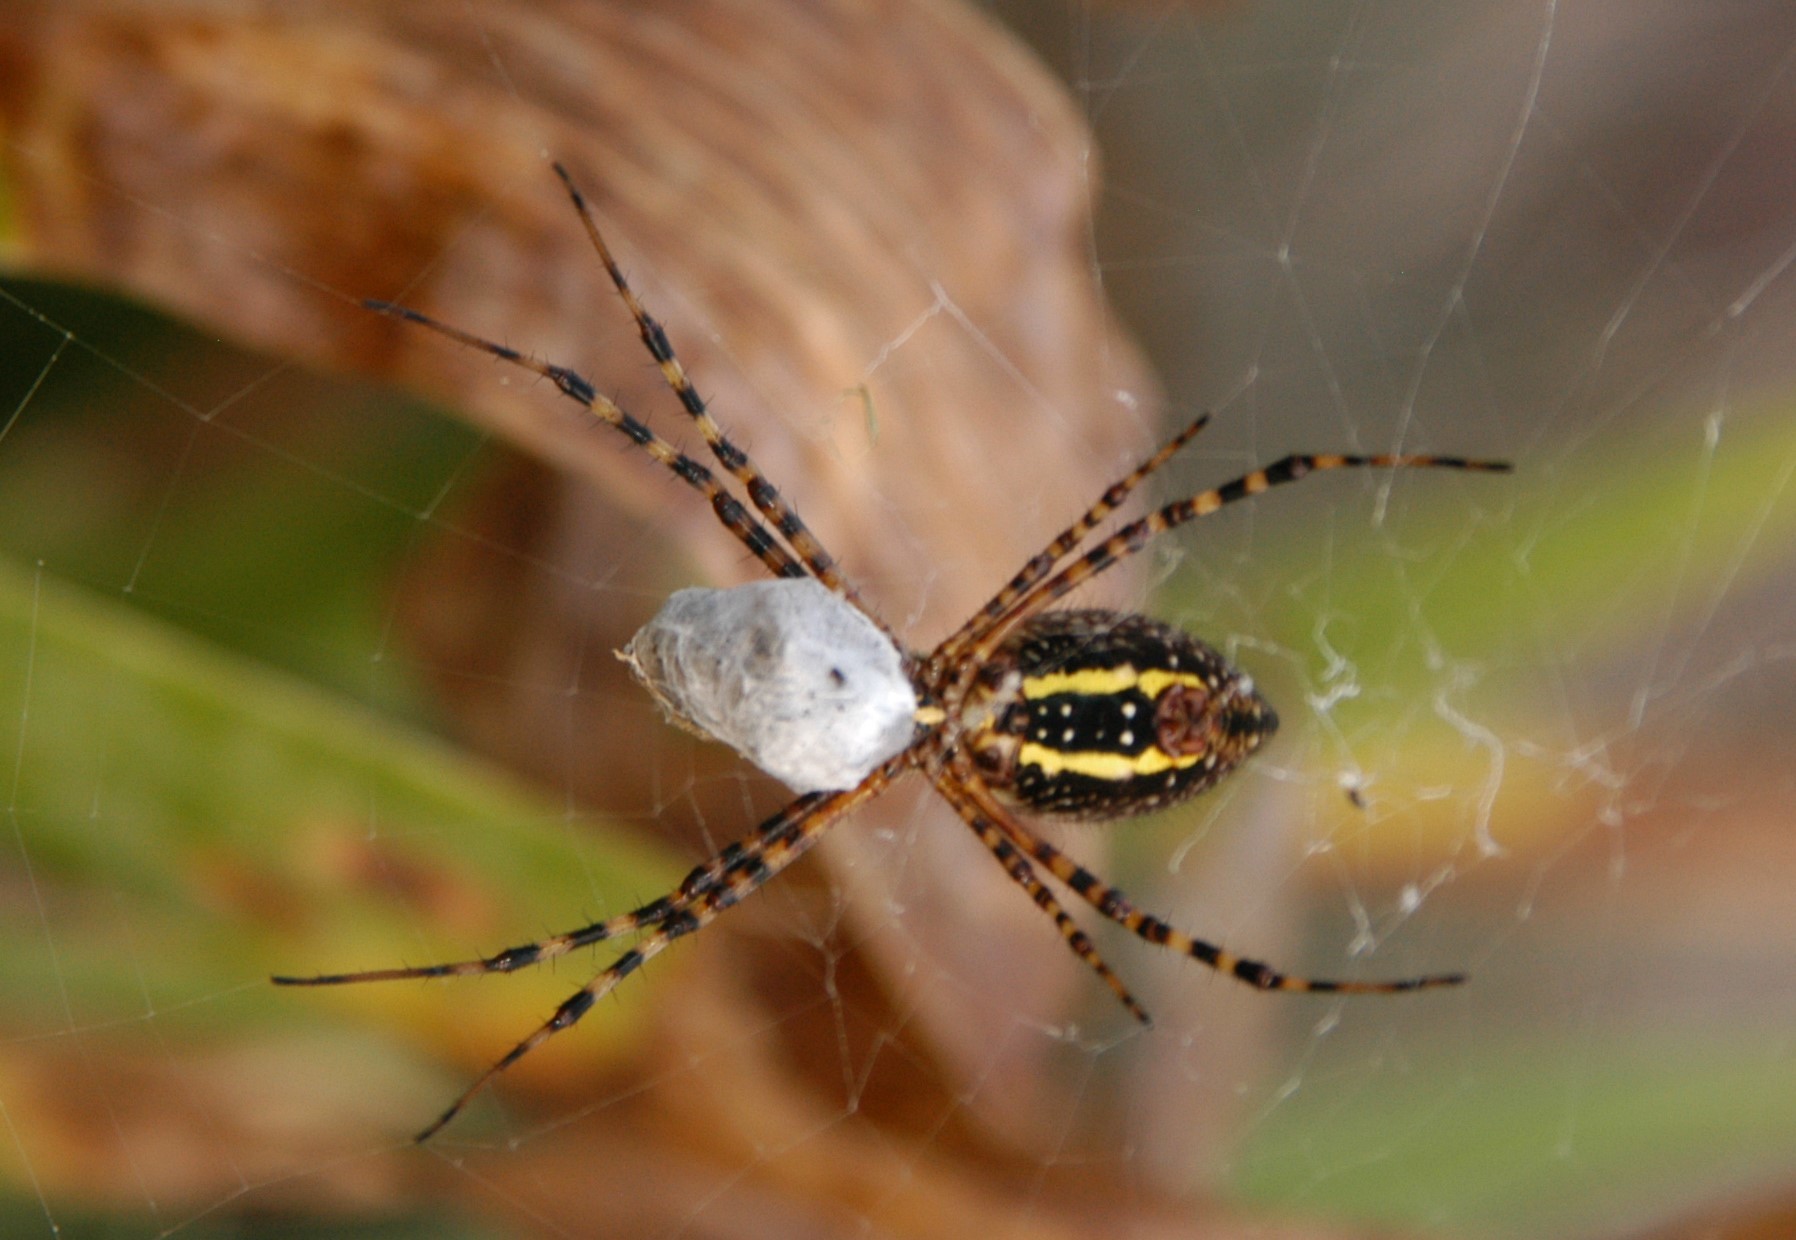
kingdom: Animalia
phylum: Arthropoda
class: Arachnida
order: Araneae
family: Araneidae
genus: Argiope
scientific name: Argiope trifasciata
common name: Banded garden spider
